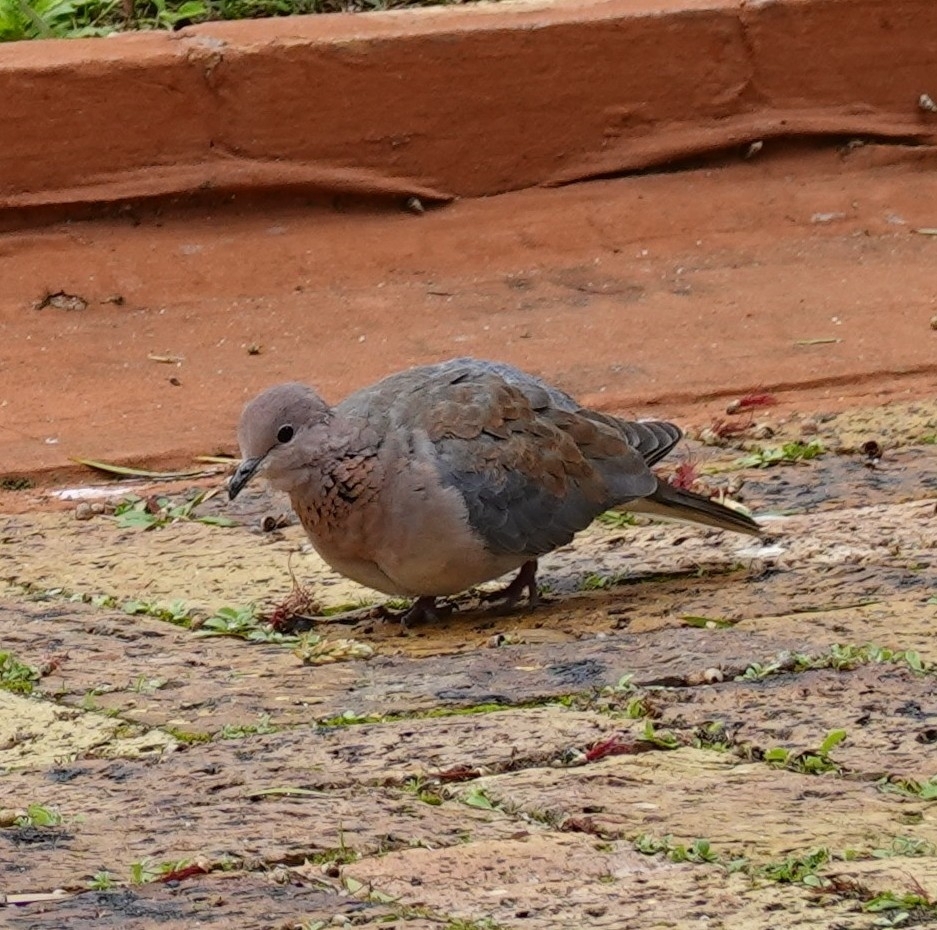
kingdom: Animalia
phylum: Chordata
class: Aves
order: Columbiformes
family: Columbidae
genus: Spilopelia
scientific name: Spilopelia senegalensis
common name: Laughing dove
